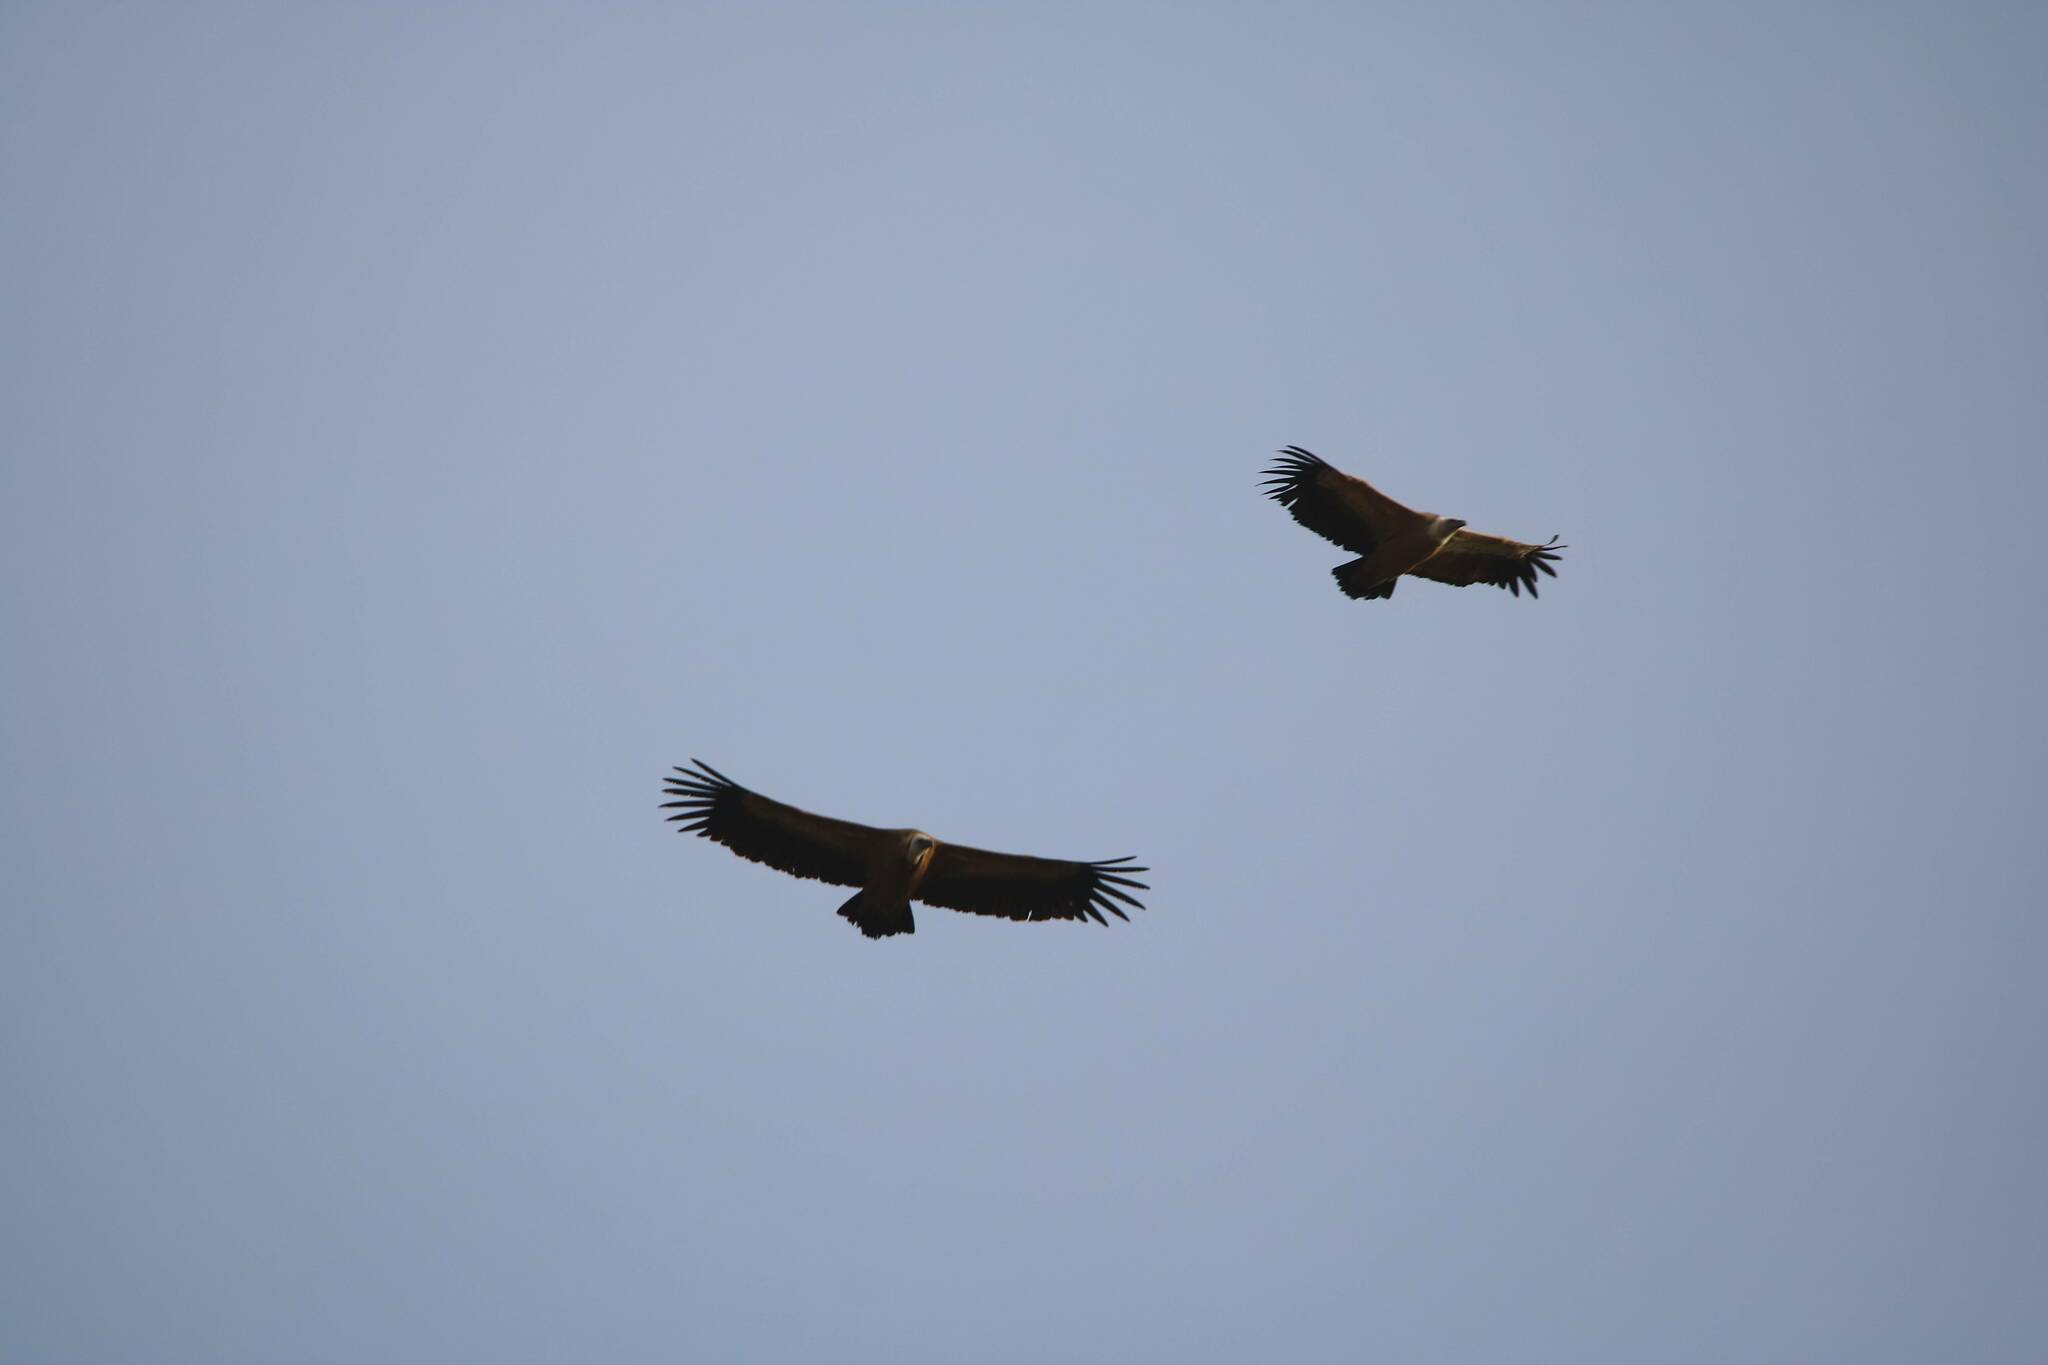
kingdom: Animalia
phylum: Chordata
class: Aves
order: Accipitriformes
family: Accipitridae
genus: Gyps
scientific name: Gyps fulvus
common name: Griffon vulture
